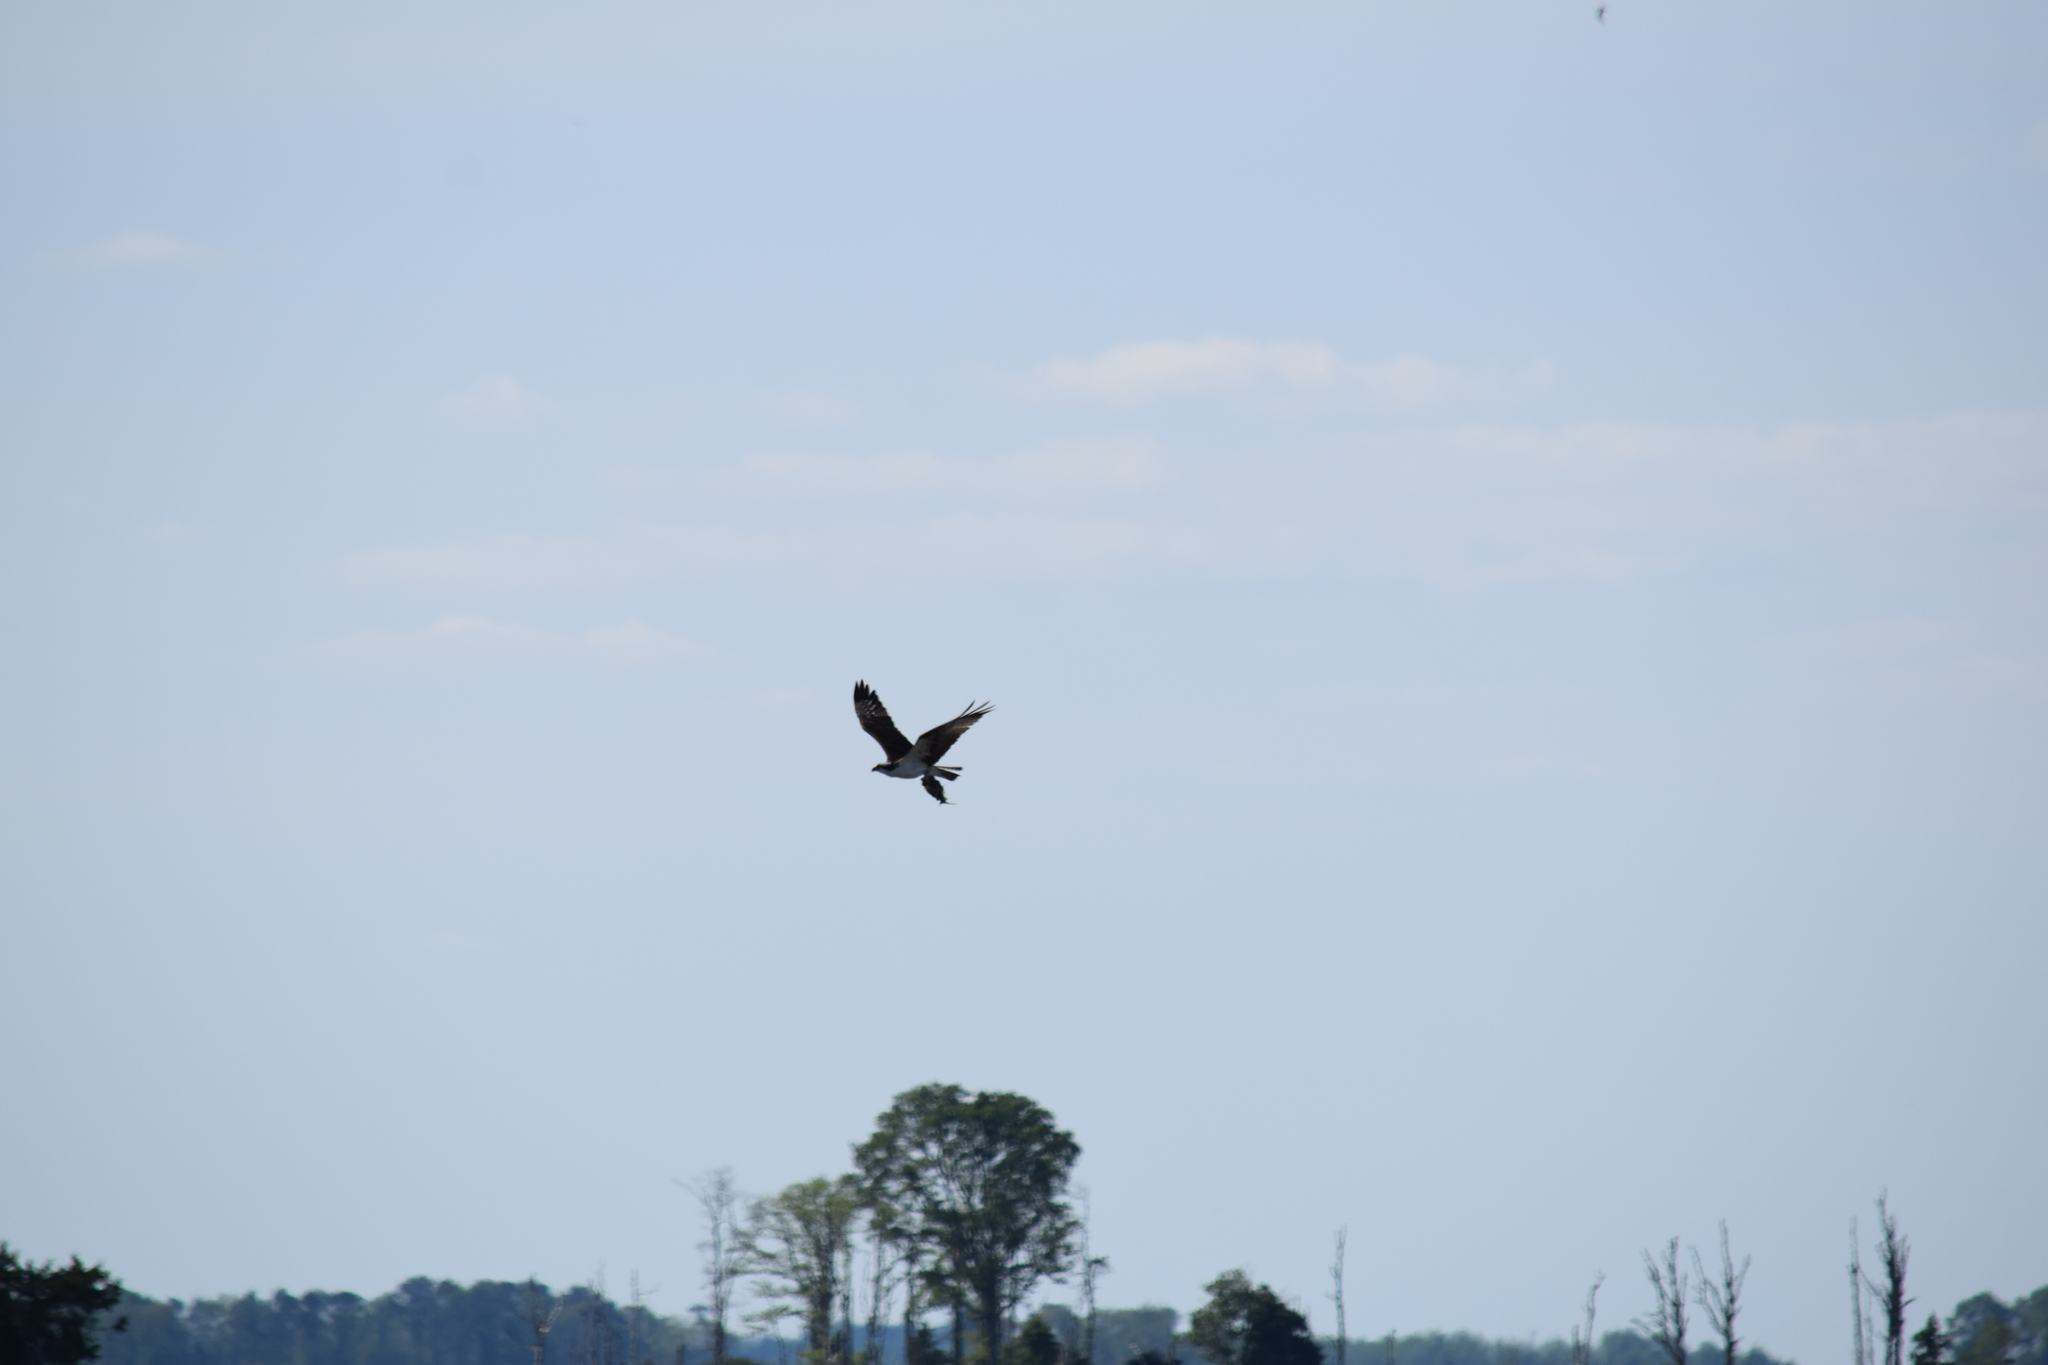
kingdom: Animalia
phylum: Chordata
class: Aves
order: Accipitriformes
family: Pandionidae
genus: Pandion
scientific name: Pandion haliaetus
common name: Osprey
